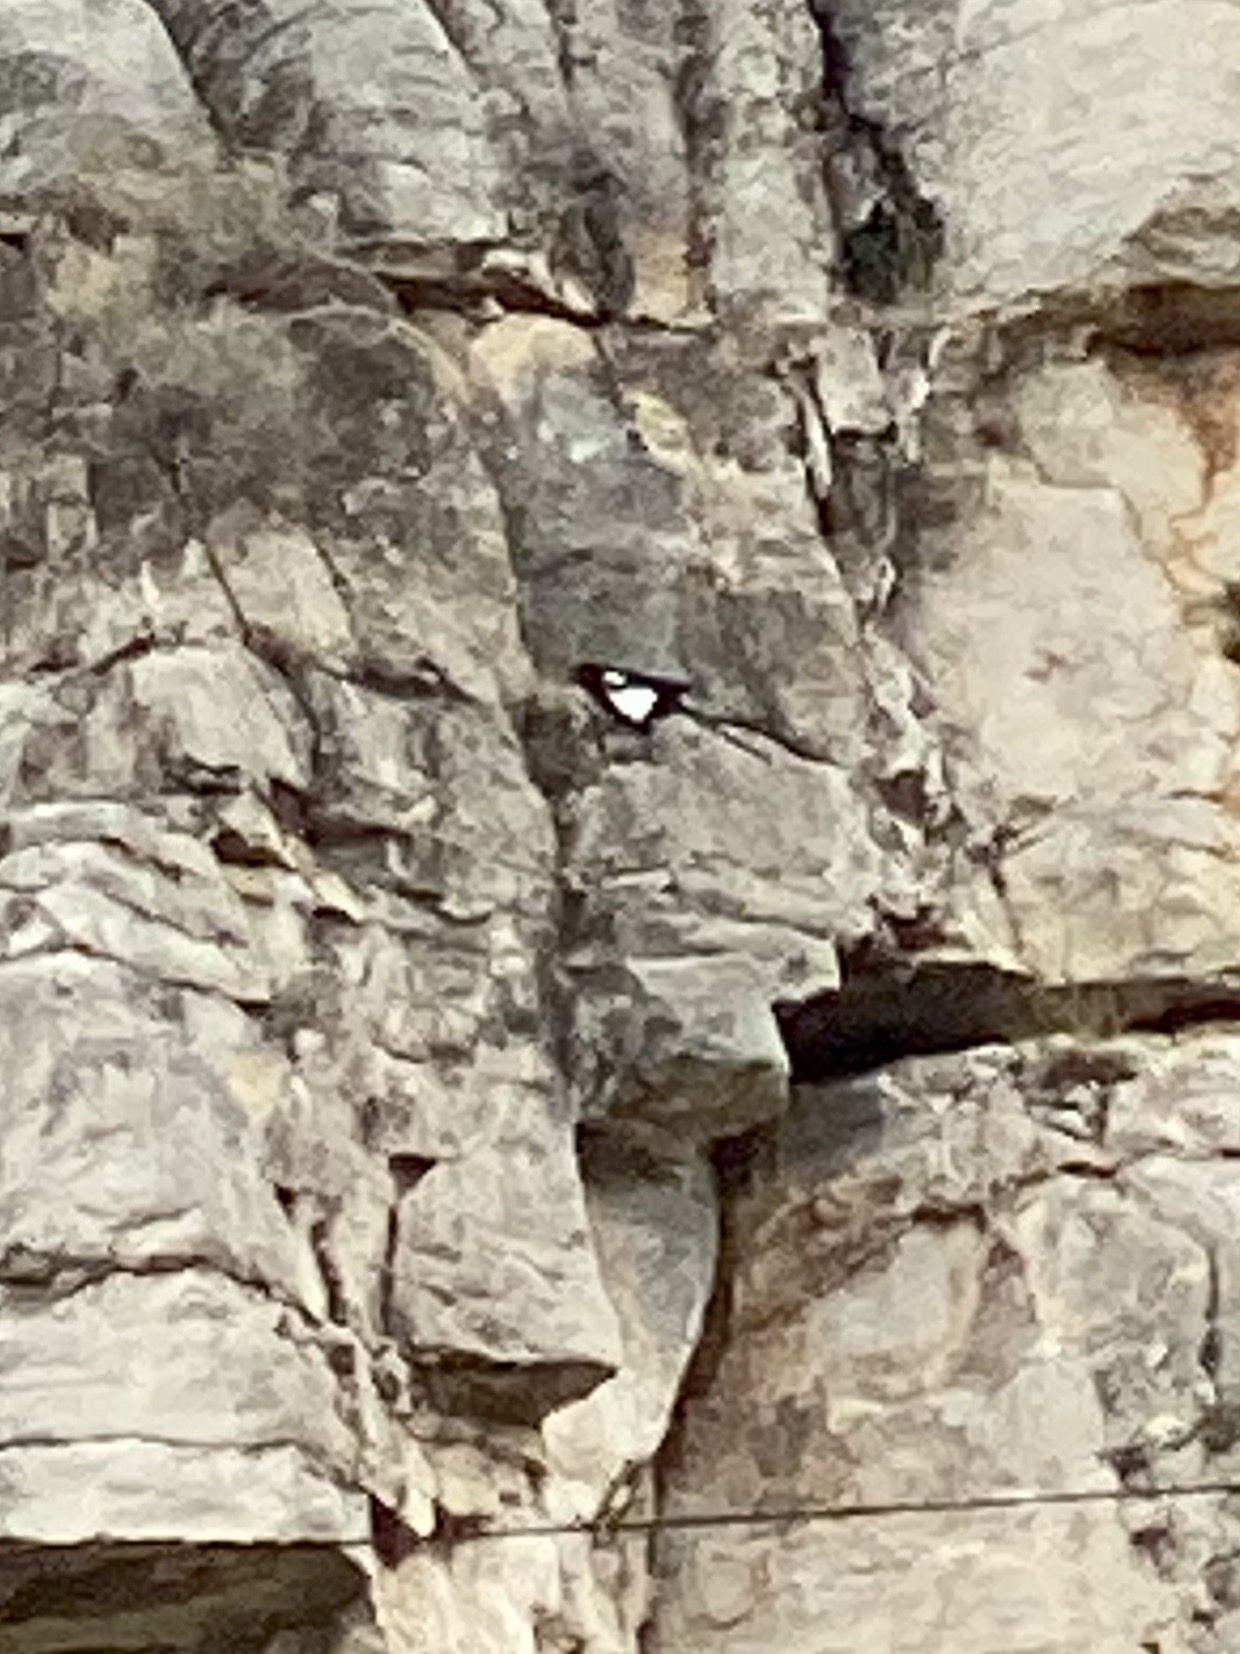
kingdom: Animalia
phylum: Chordata
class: Aves
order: Passeriformes
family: Corvidae
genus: Pica
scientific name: Pica pica
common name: Eurasian magpie
